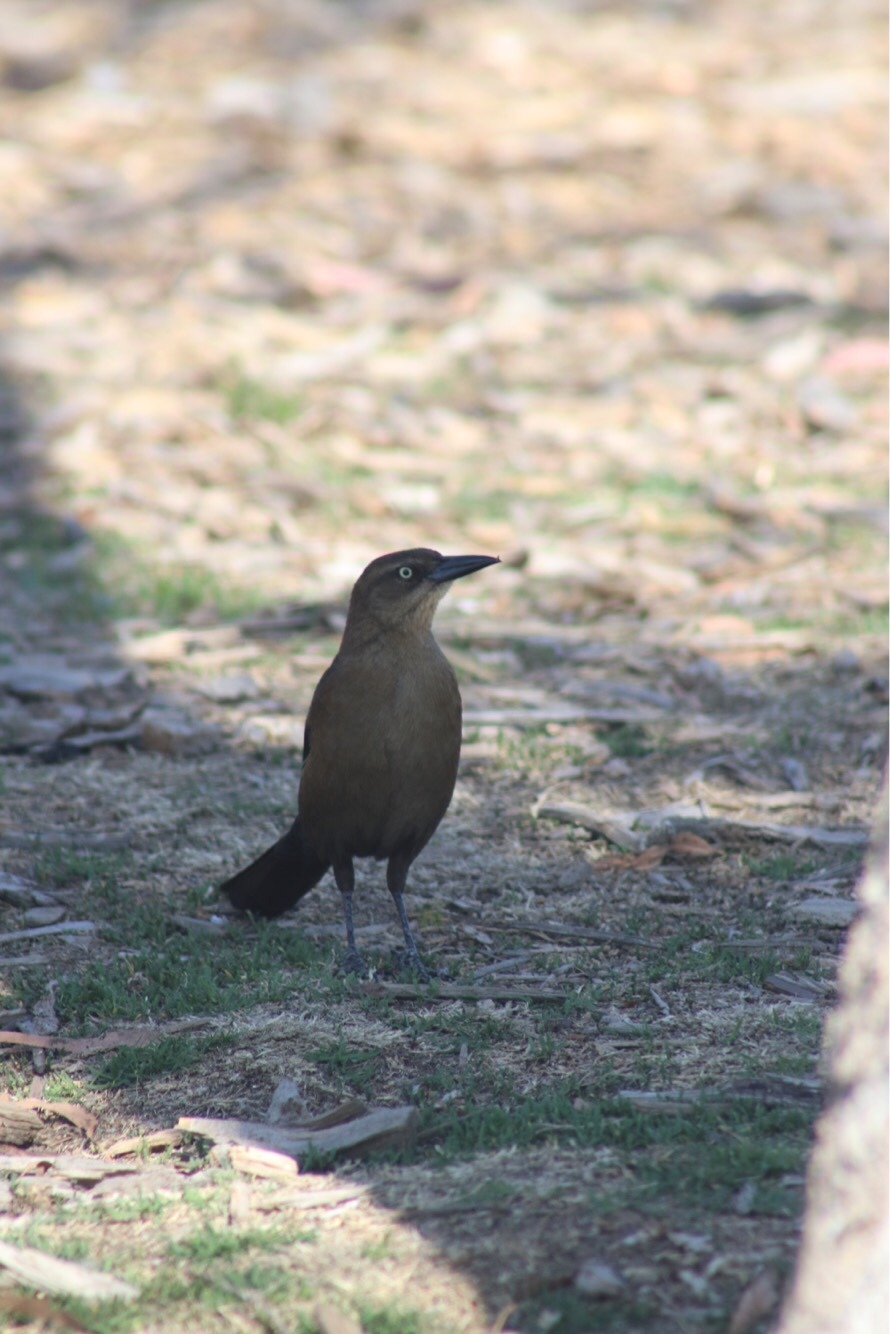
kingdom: Animalia
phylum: Chordata
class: Aves
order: Passeriformes
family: Icteridae
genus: Quiscalus
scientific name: Quiscalus mexicanus
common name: Great-tailed grackle
